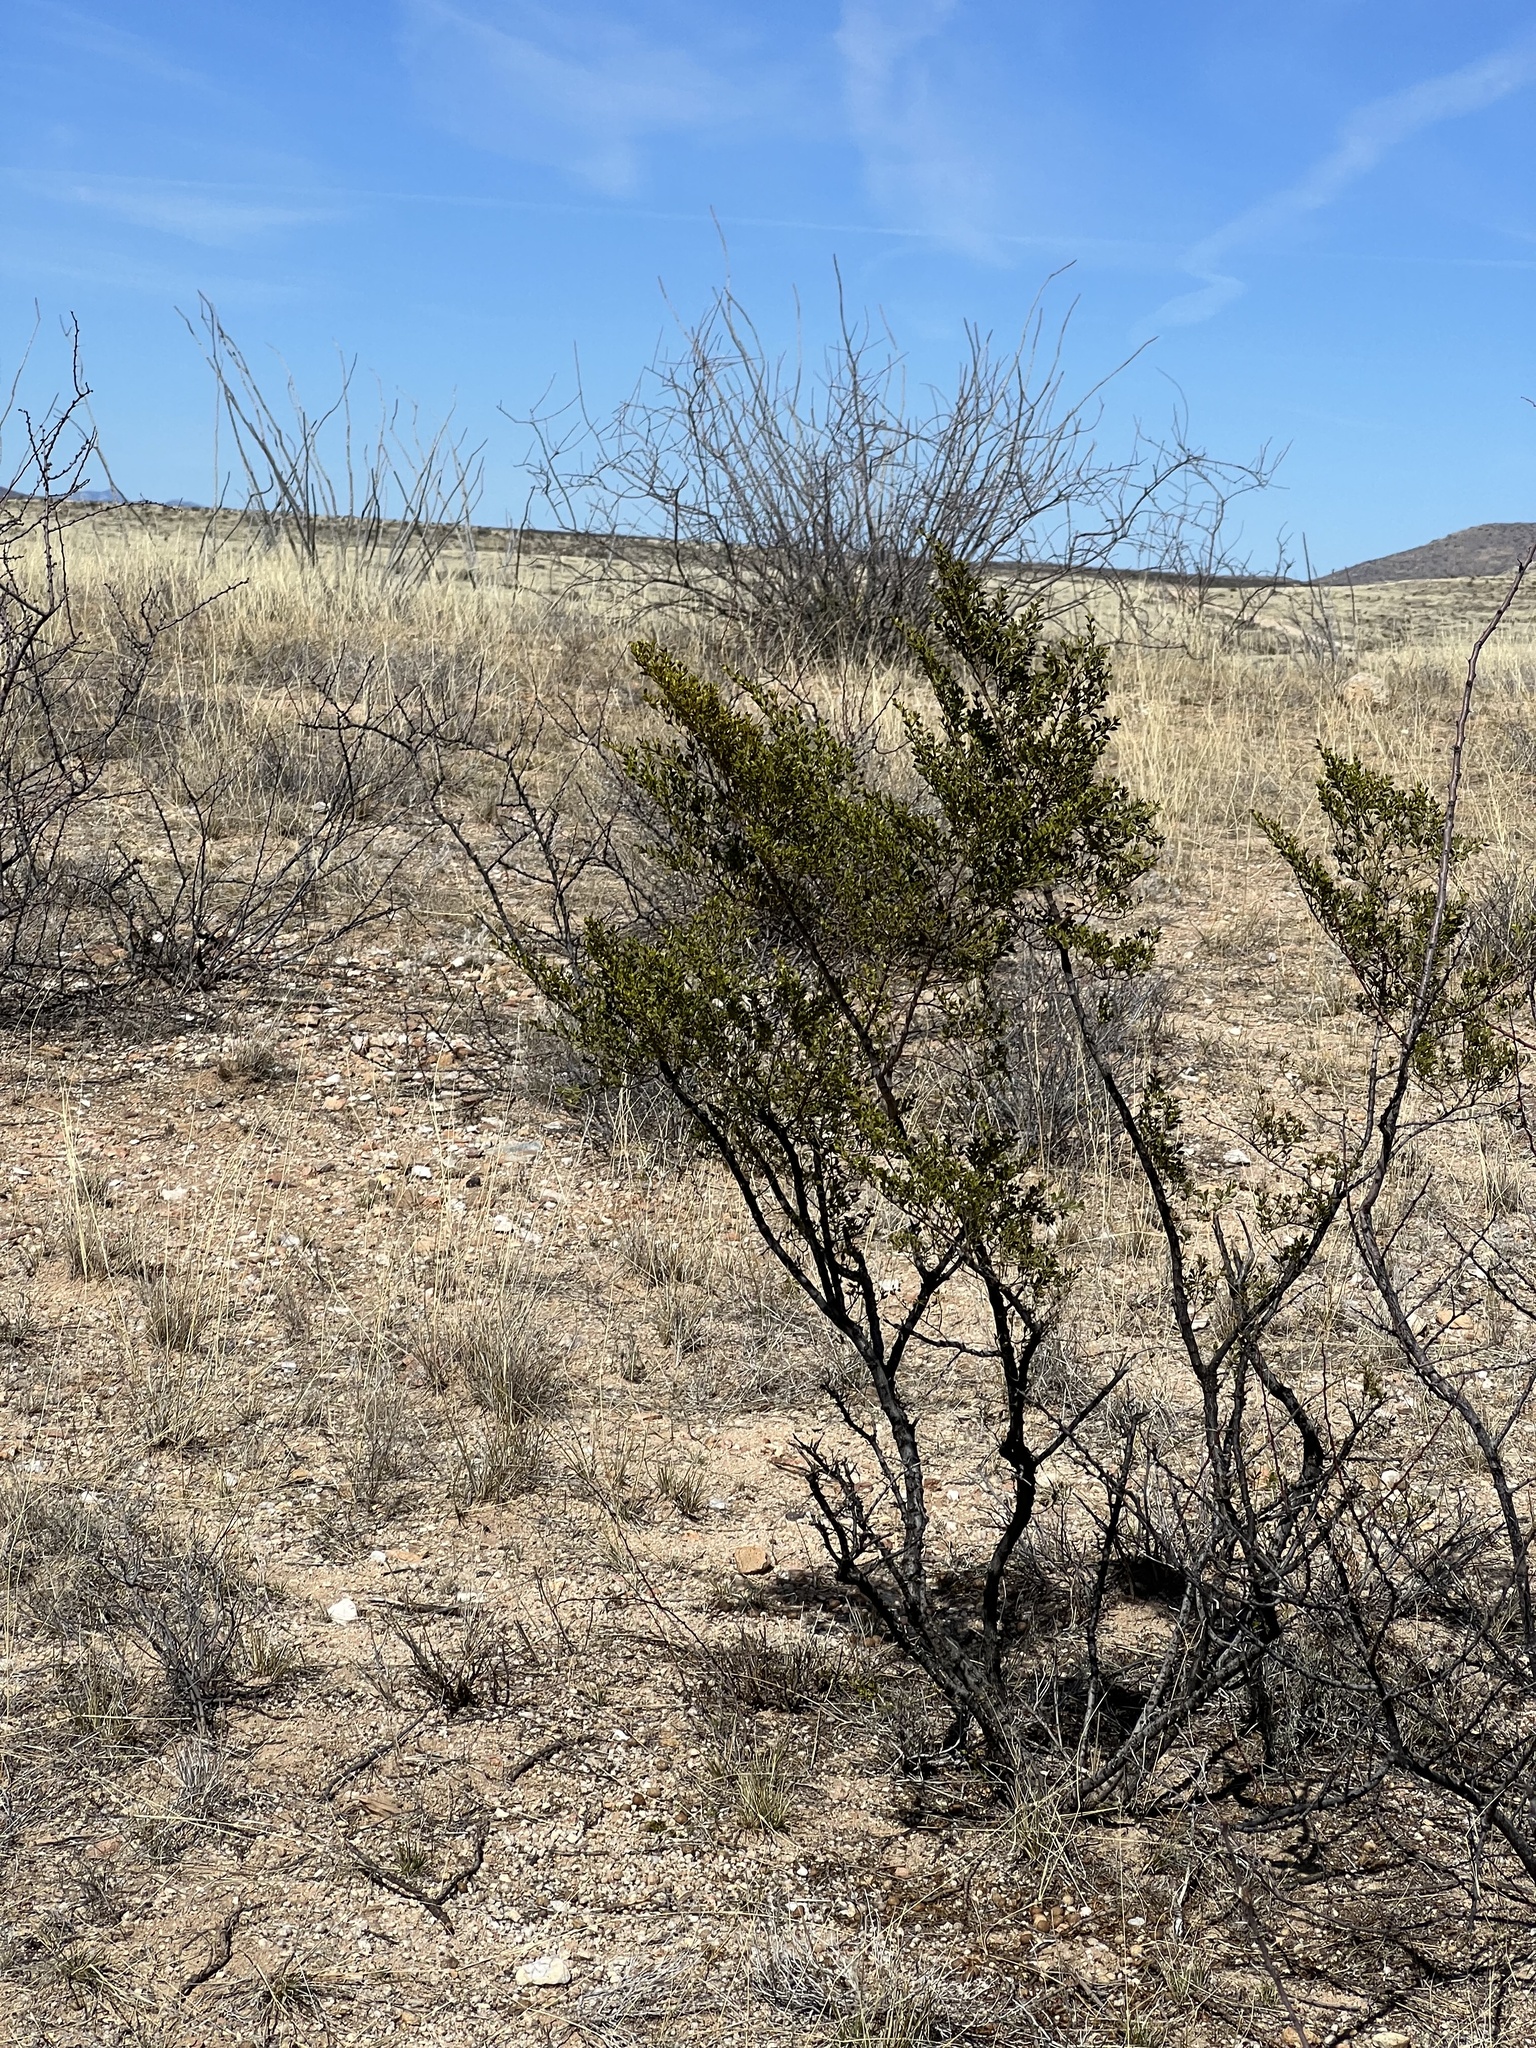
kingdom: Plantae
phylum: Tracheophyta
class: Magnoliopsida
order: Zygophyllales
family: Zygophyllaceae
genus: Larrea
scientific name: Larrea tridentata
